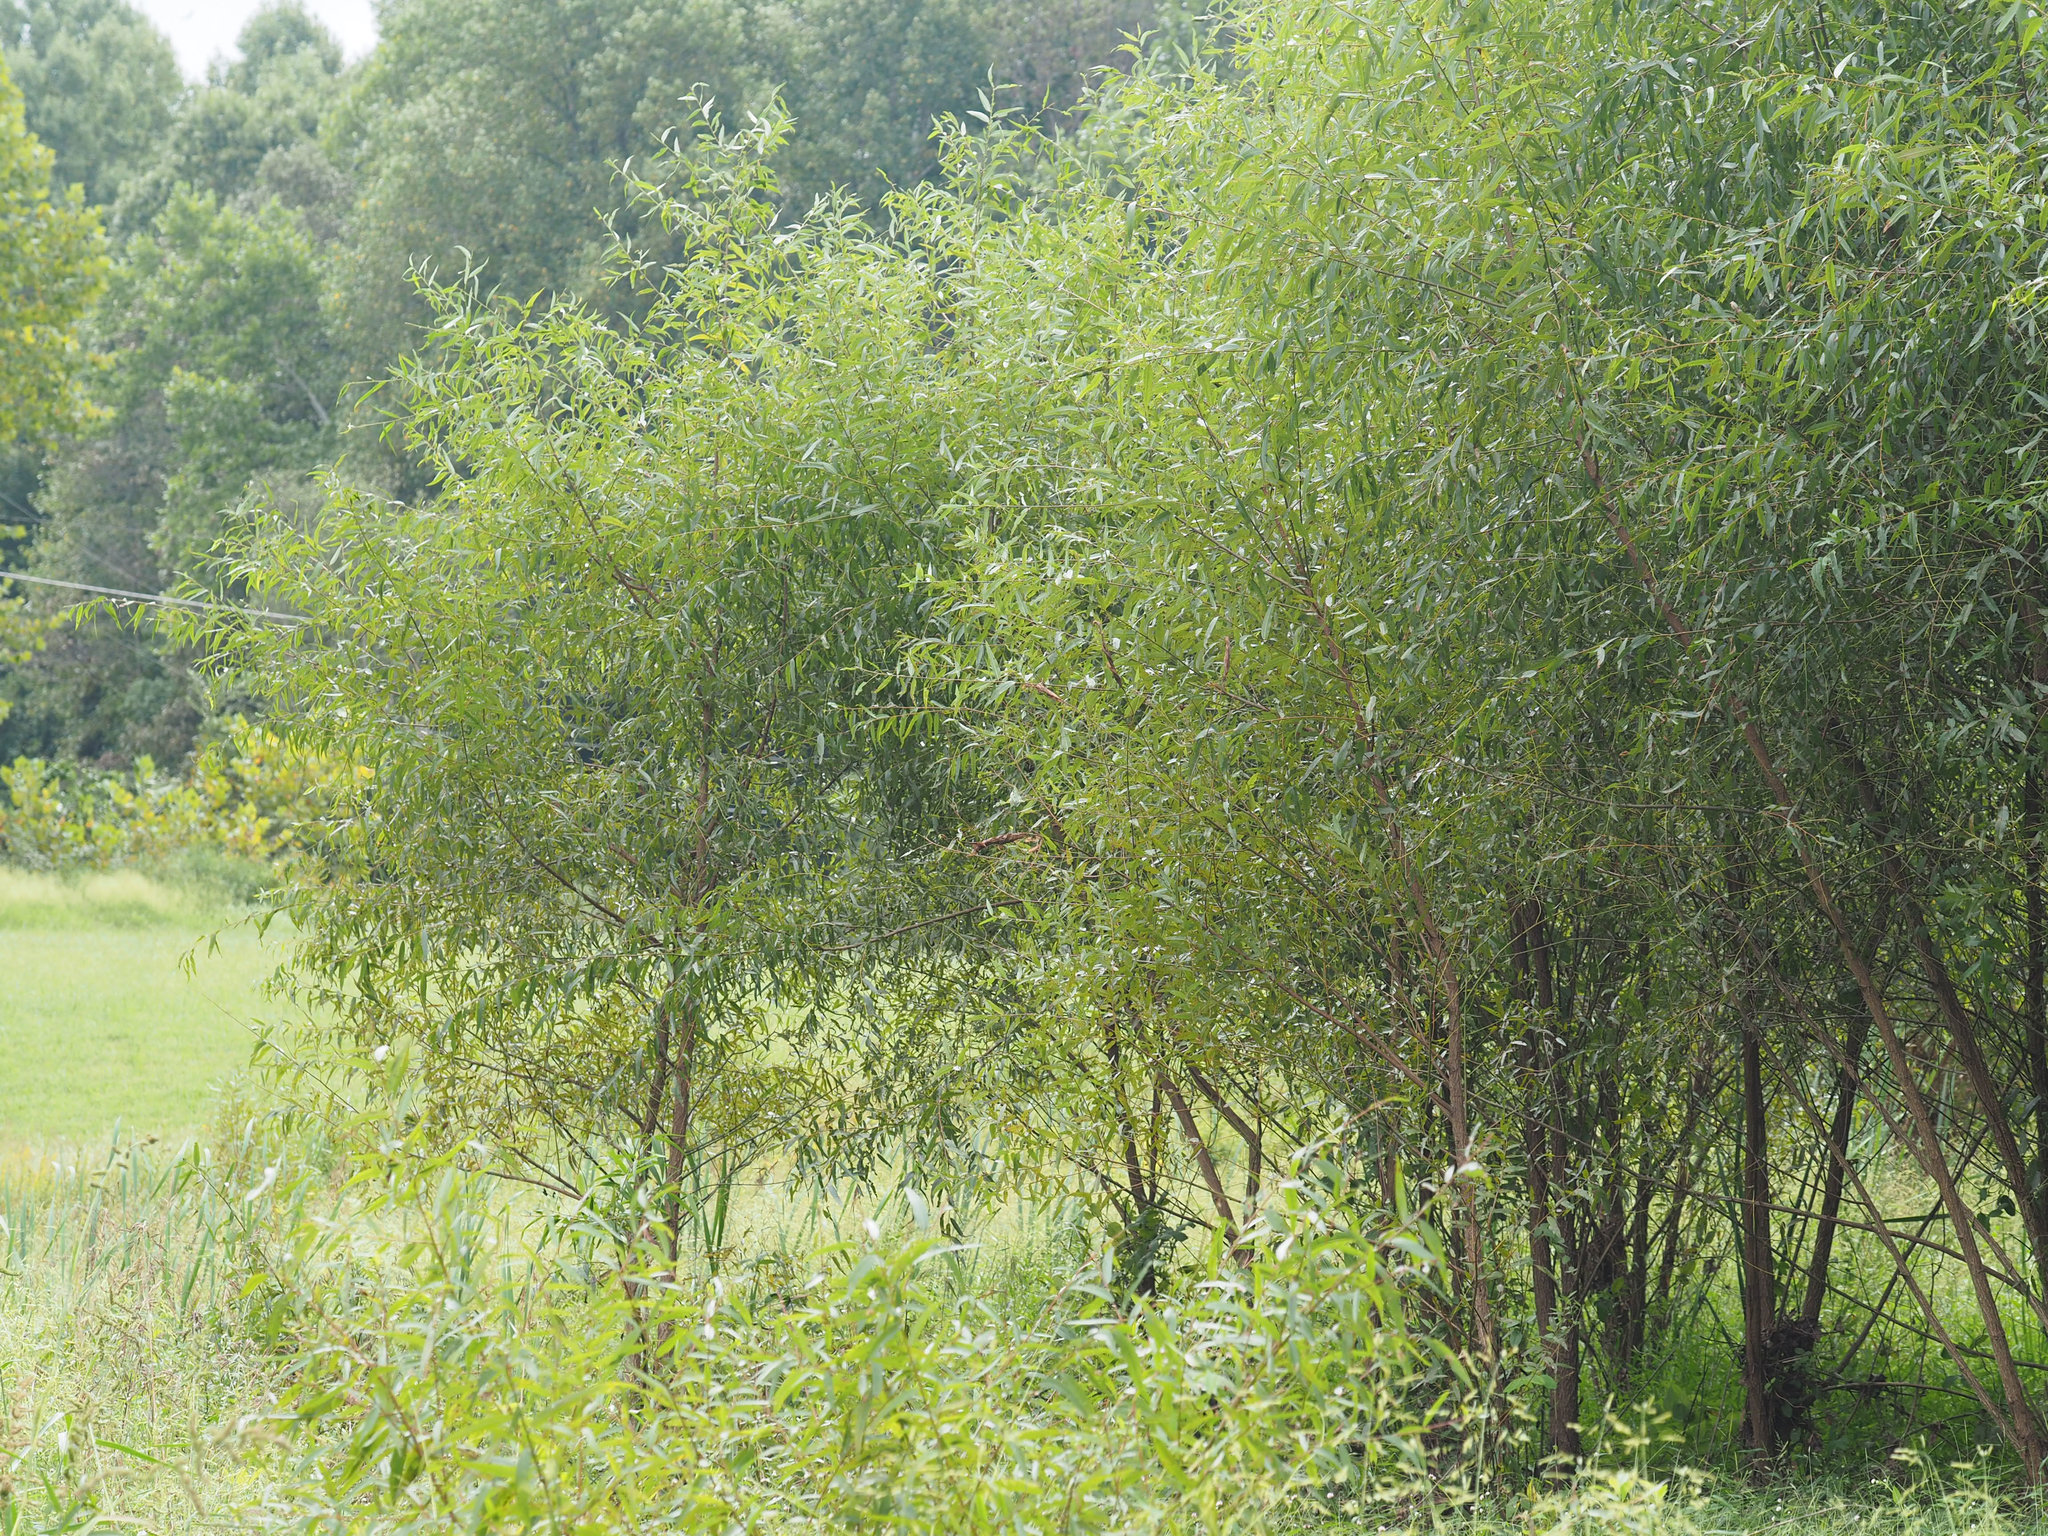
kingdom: Plantae
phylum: Tracheophyta
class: Magnoliopsida
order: Malpighiales
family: Salicaceae
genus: Salix
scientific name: Salix nigra
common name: Black willow
